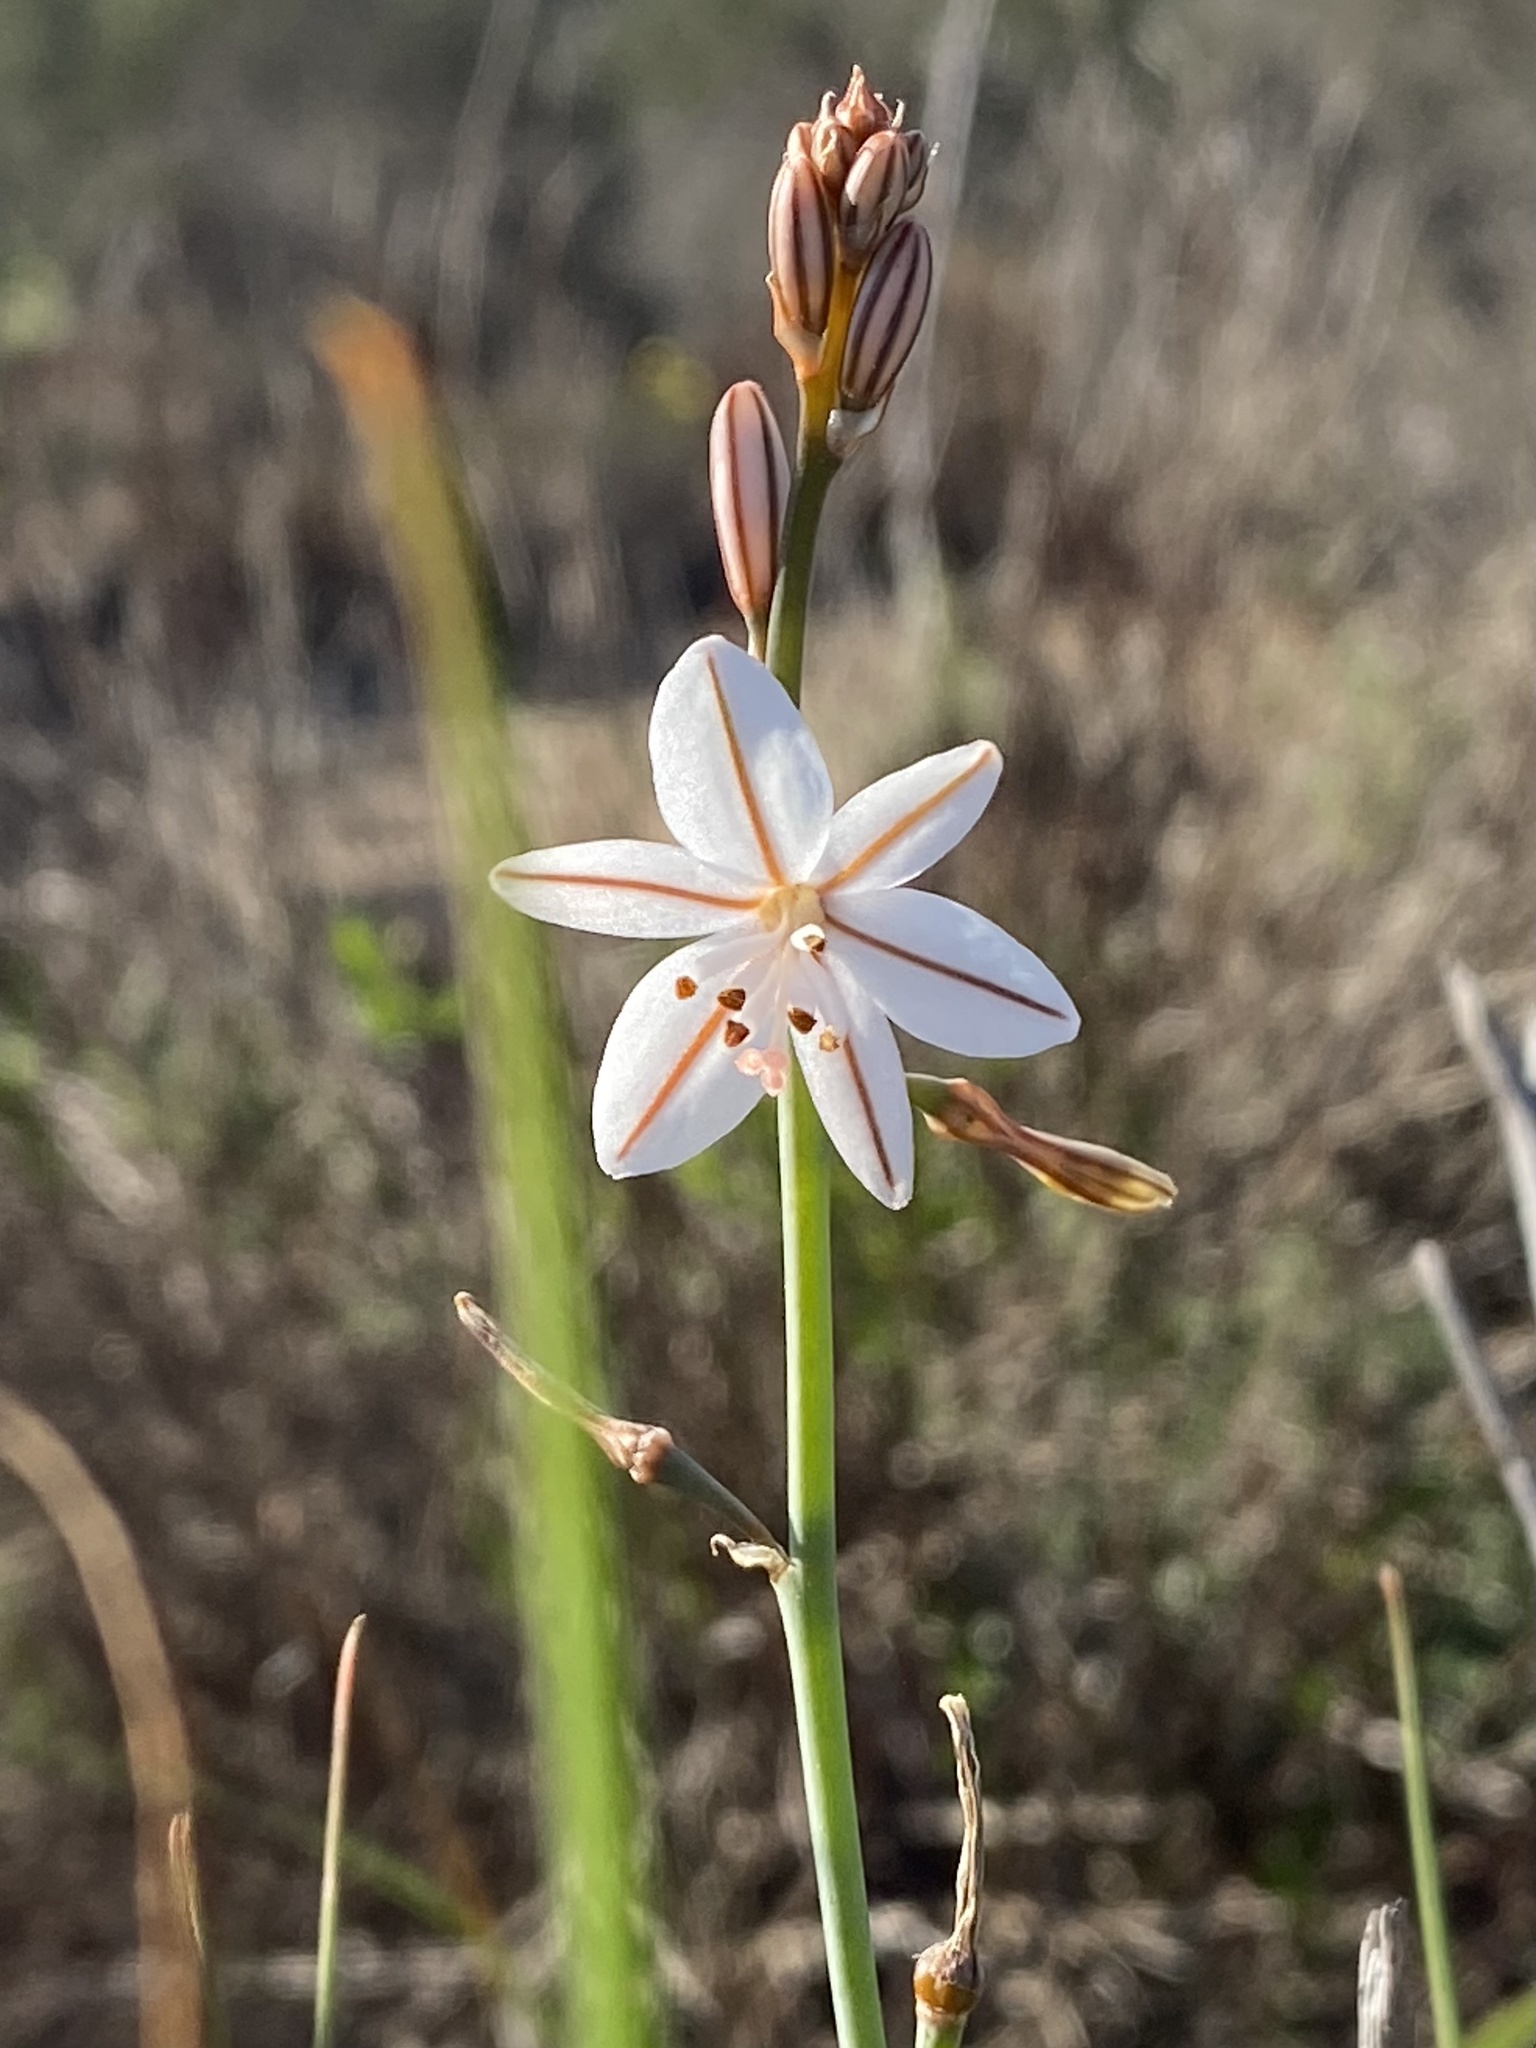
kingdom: Plantae
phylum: Tracheophyta
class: Liliopsida
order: Asparagales
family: Asphodelaceae
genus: Asphodelus
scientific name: Asphodelus fistulosus
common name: Onionweed
